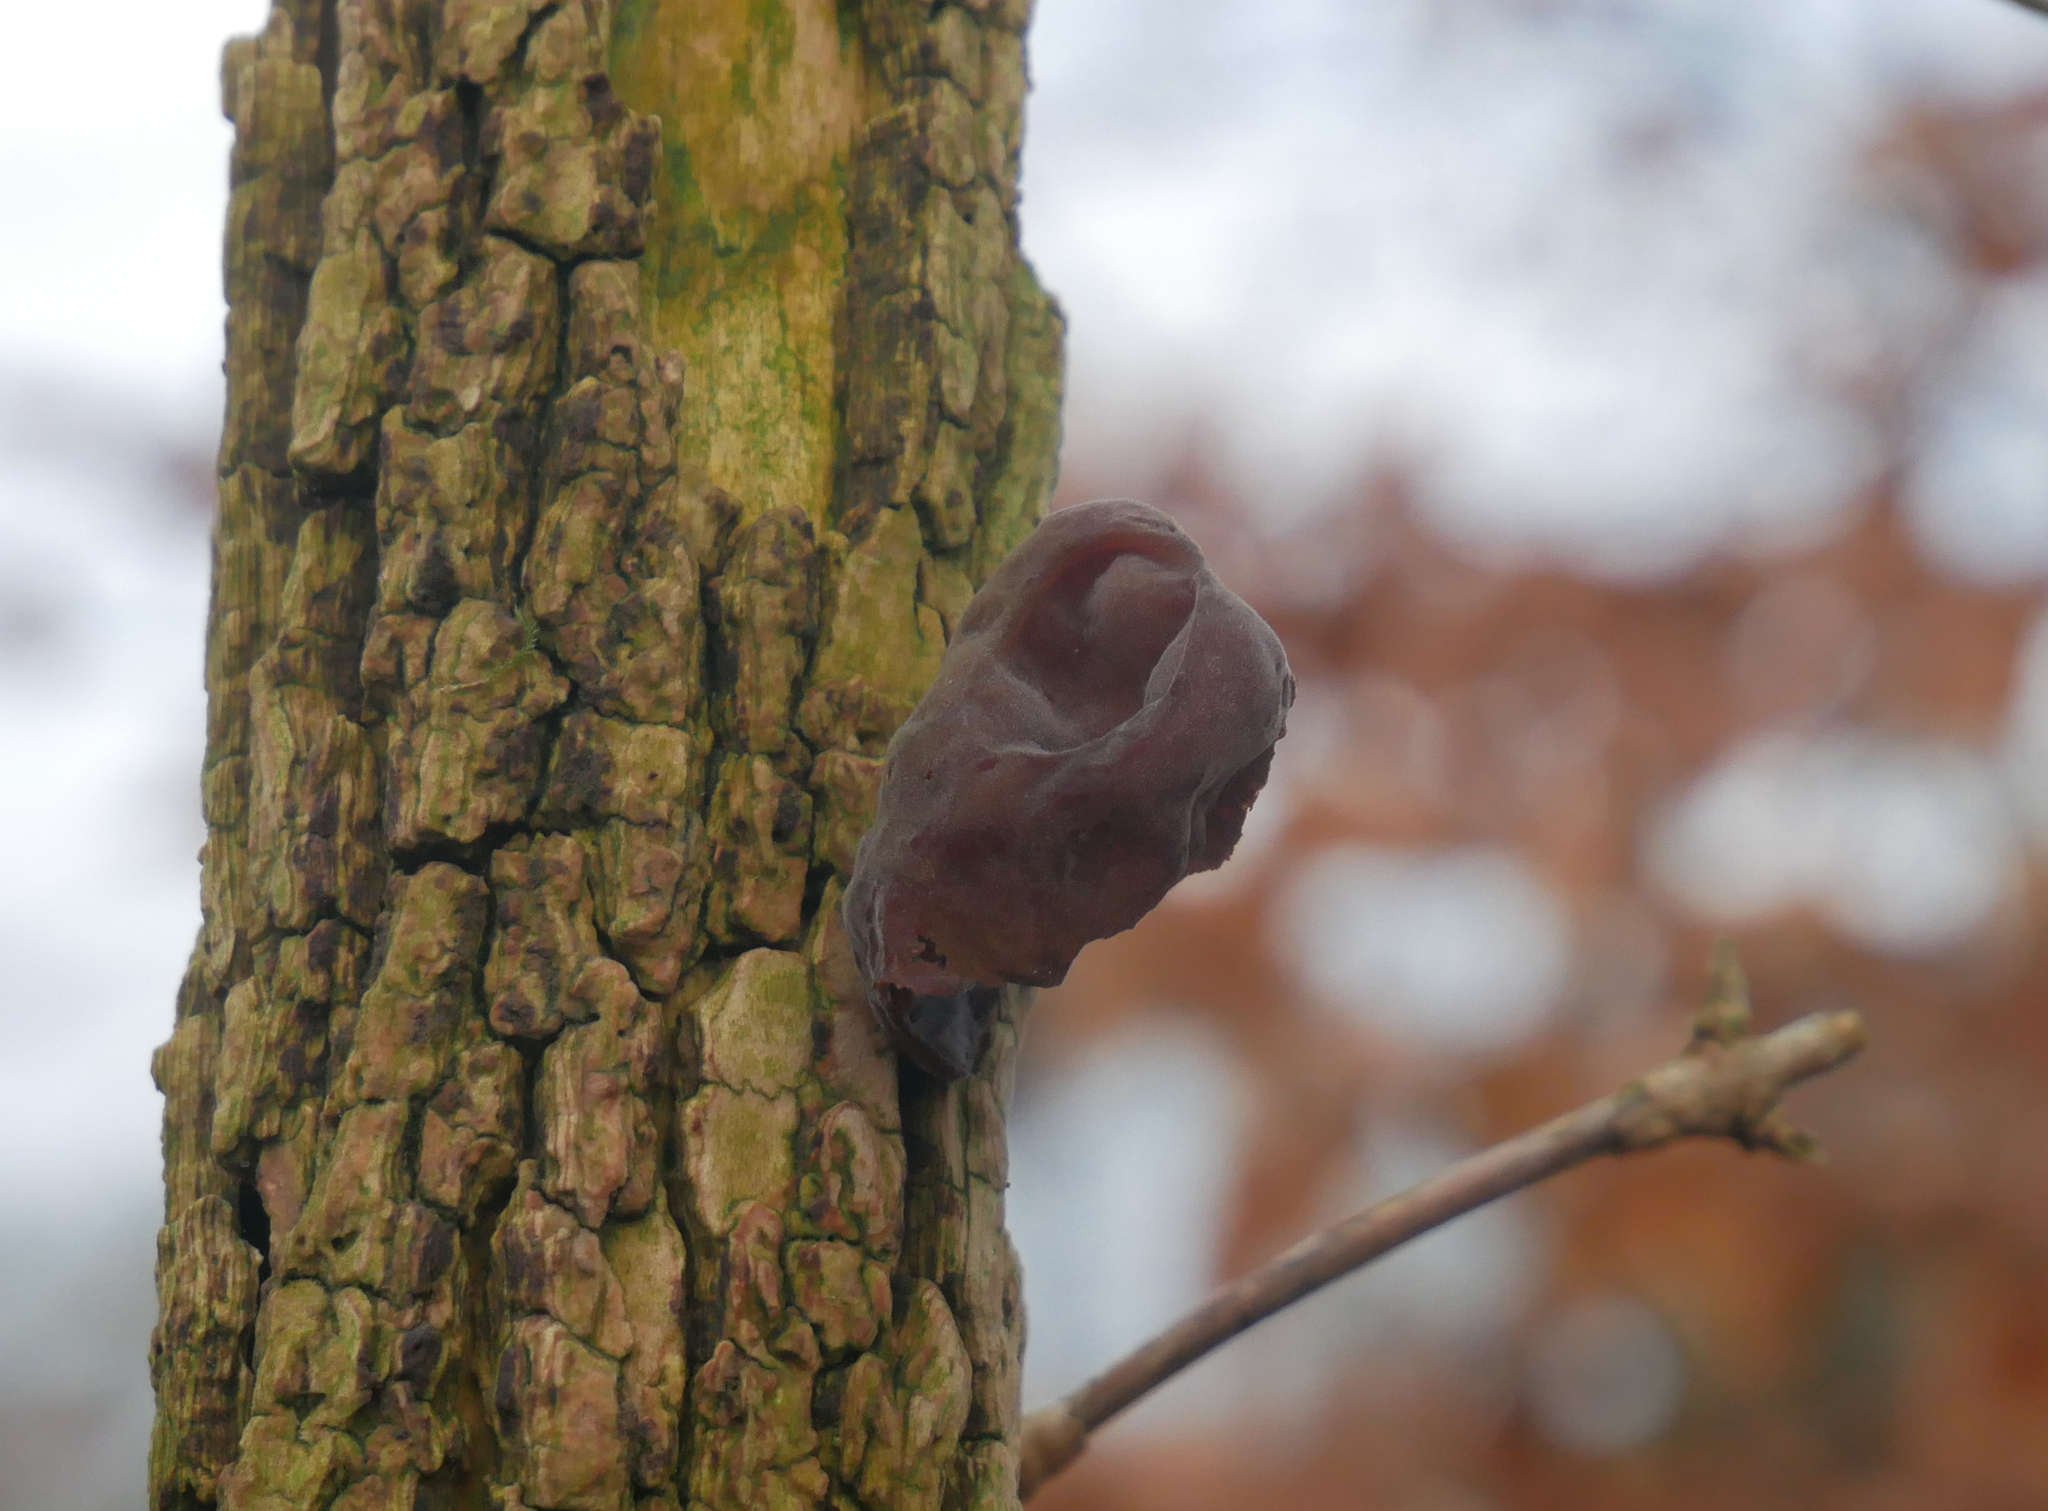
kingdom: Fungi
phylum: Basidiomycota
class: Agaricomycetes
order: Auriculariales
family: Auriculariaceae
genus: Auricularia
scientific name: Auricularia auricula-judae
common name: Jelly ear
